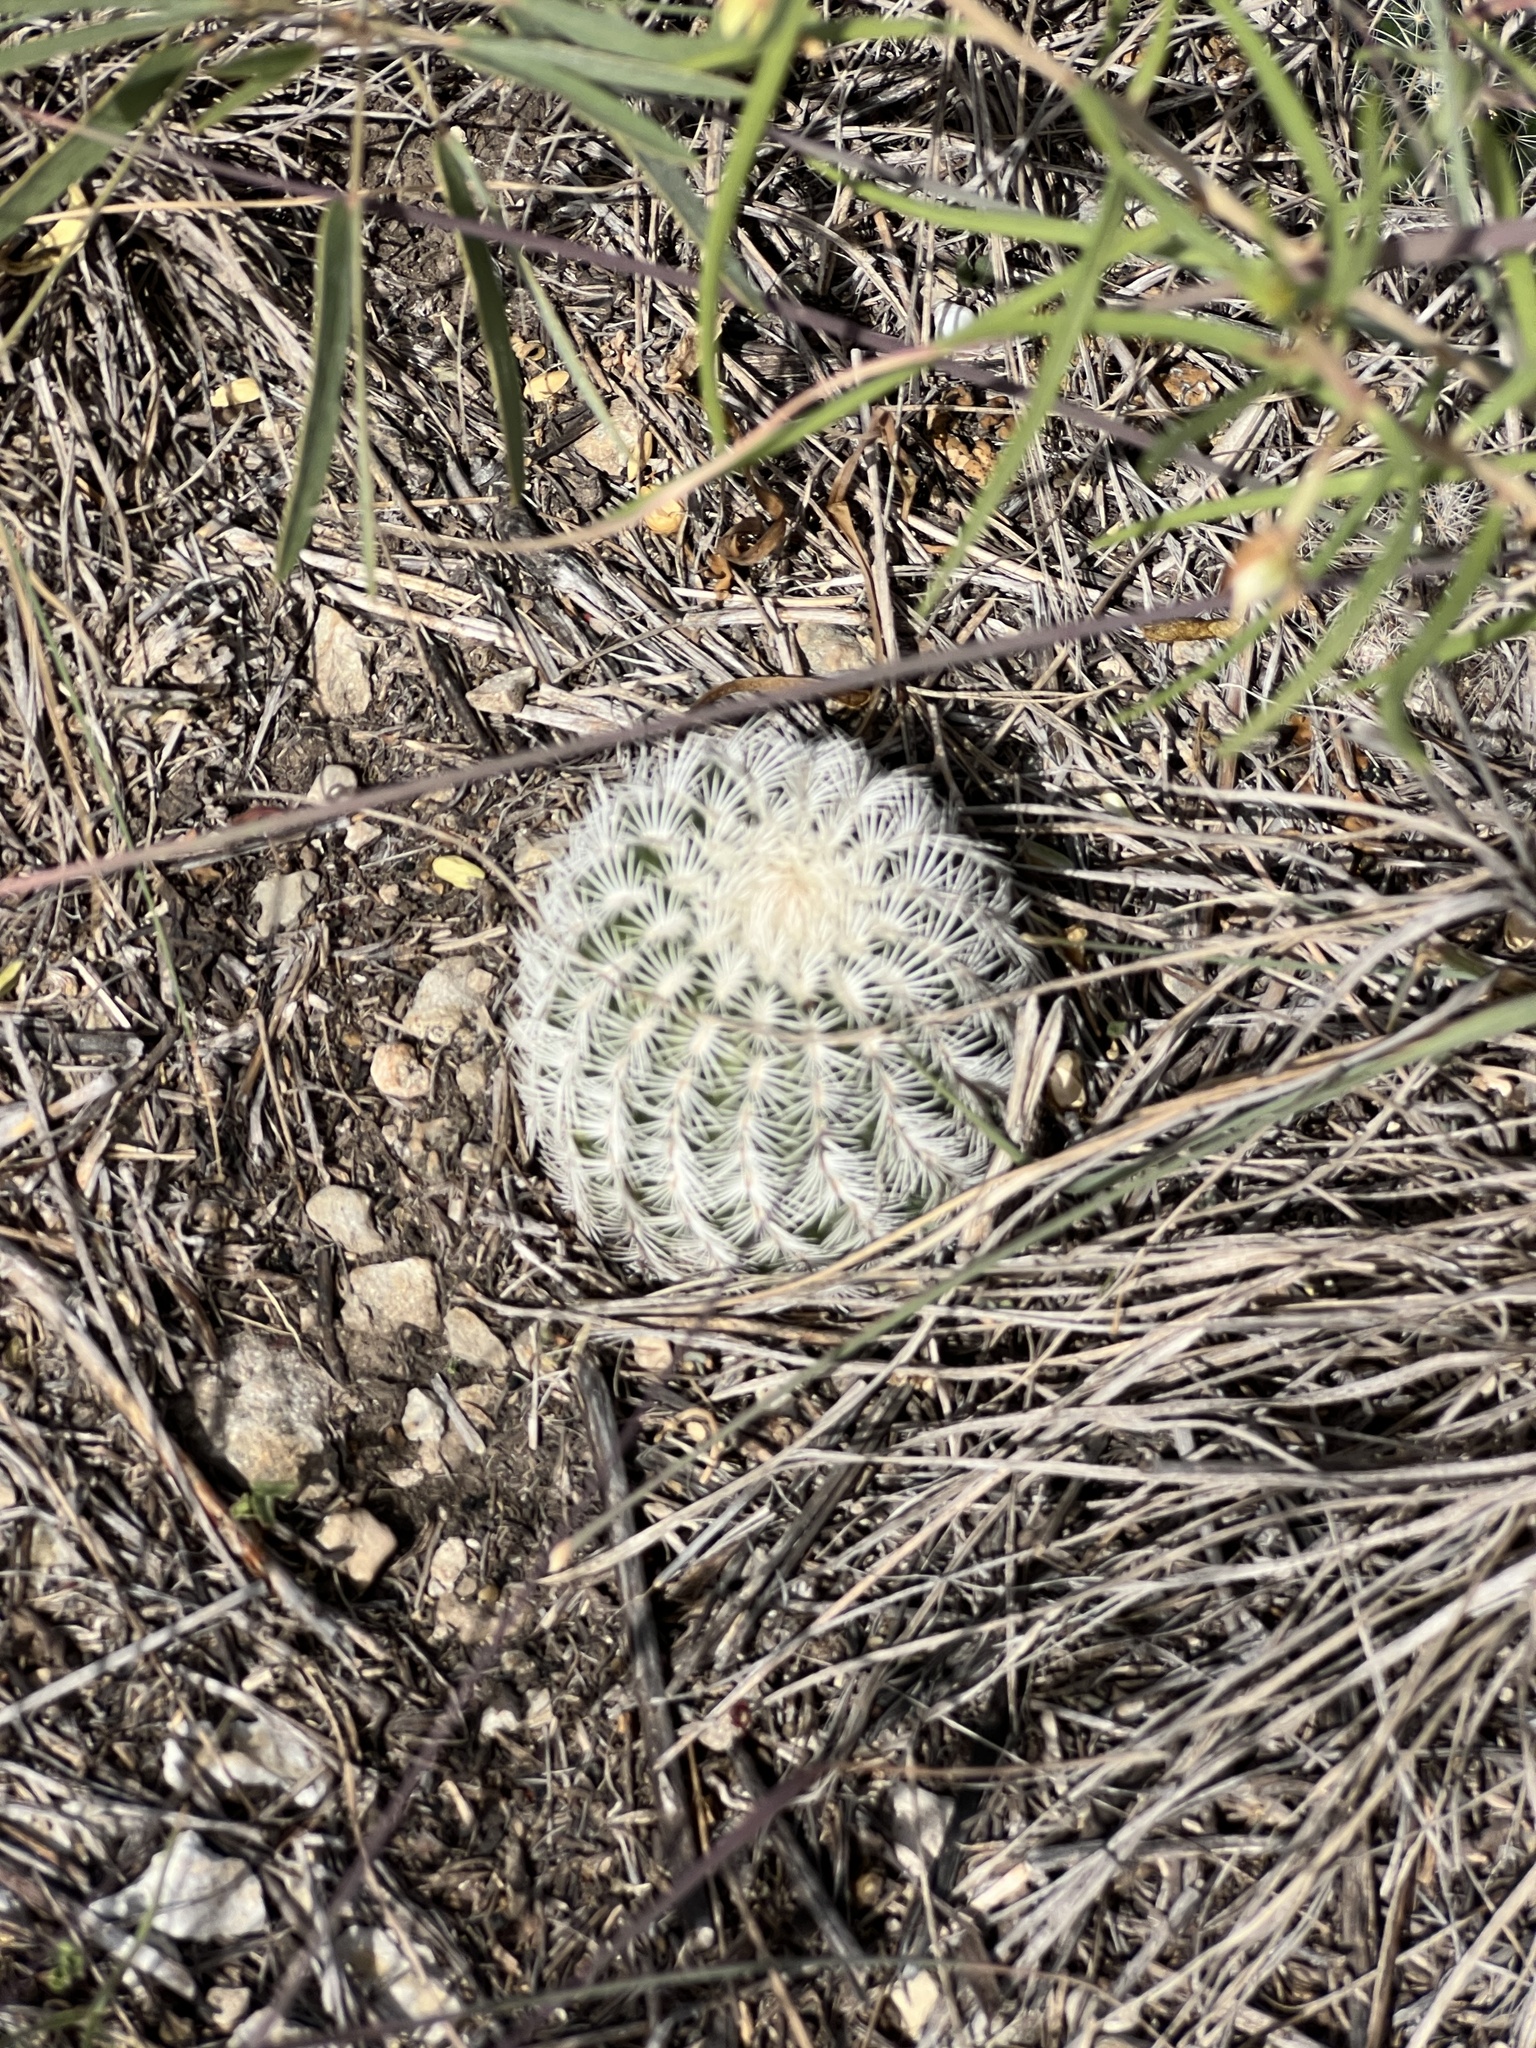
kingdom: Plantae
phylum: Tracheophyta
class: Magnoliopsida
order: Caryophyllales
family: Cactaceae
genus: Echinocereus
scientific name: Echinocereus reichenbachii
